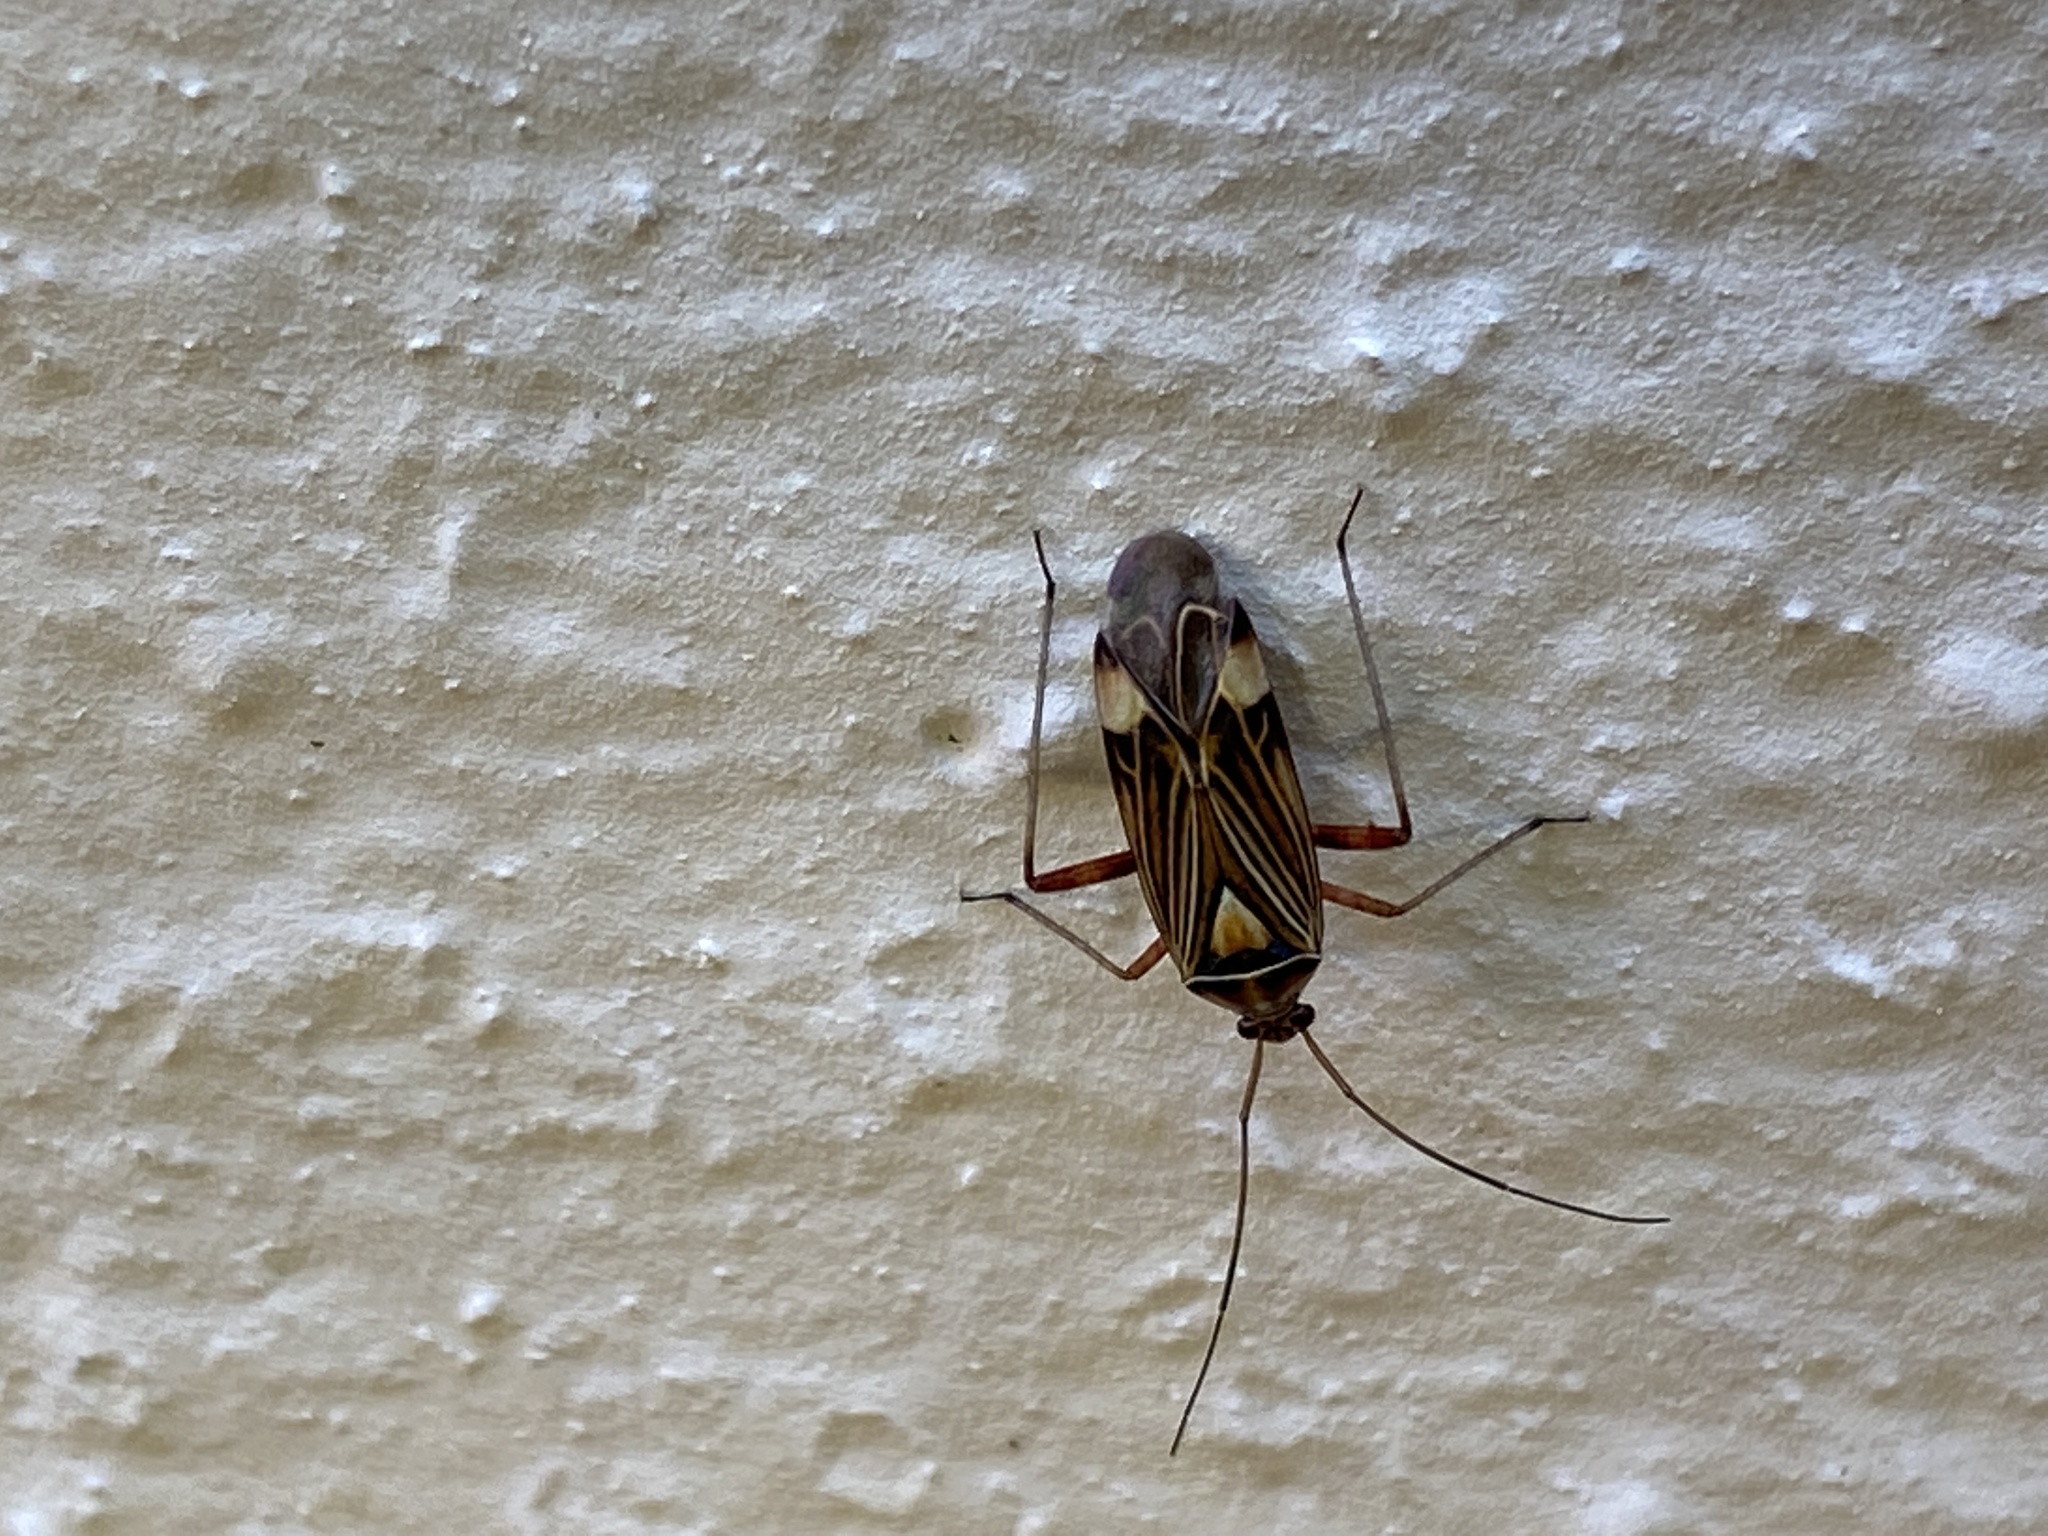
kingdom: Animalia
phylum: Arthropoda
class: Insecta
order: Hemiptera
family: Miridae
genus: Rhabdomiris
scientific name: Rhabdomiris striatellus
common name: Plant bug
